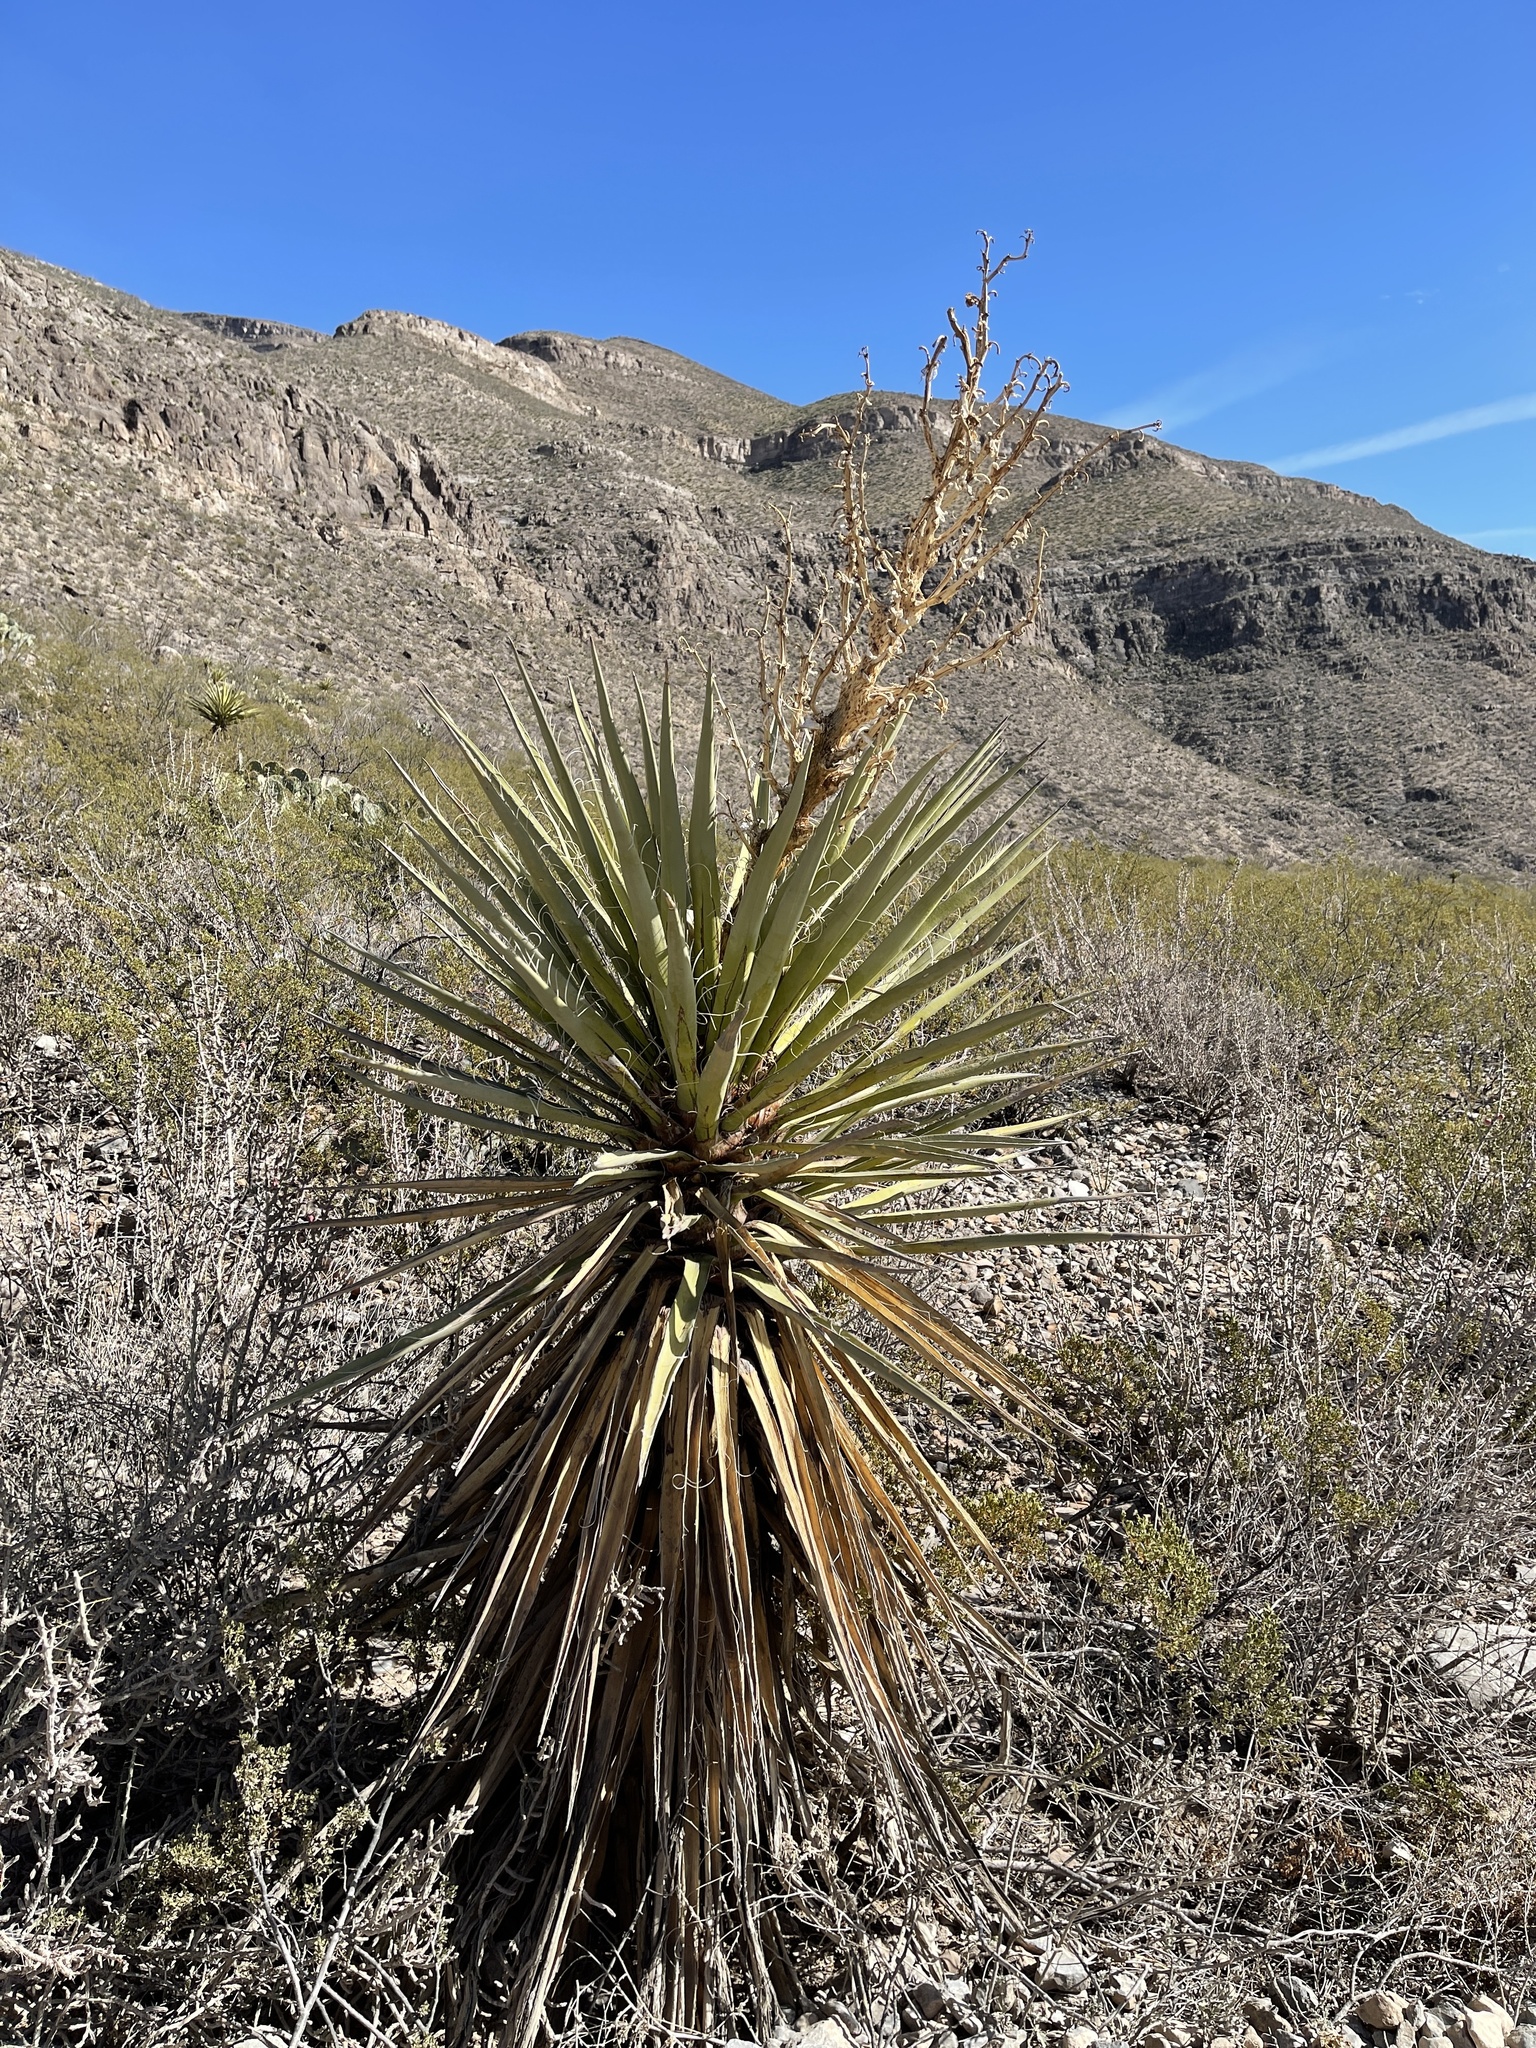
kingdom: Plantae
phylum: Tracheophyta
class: Liliopsida
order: Asparagales
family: Asparagaceae
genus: Yucca
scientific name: Yucca treculiana
